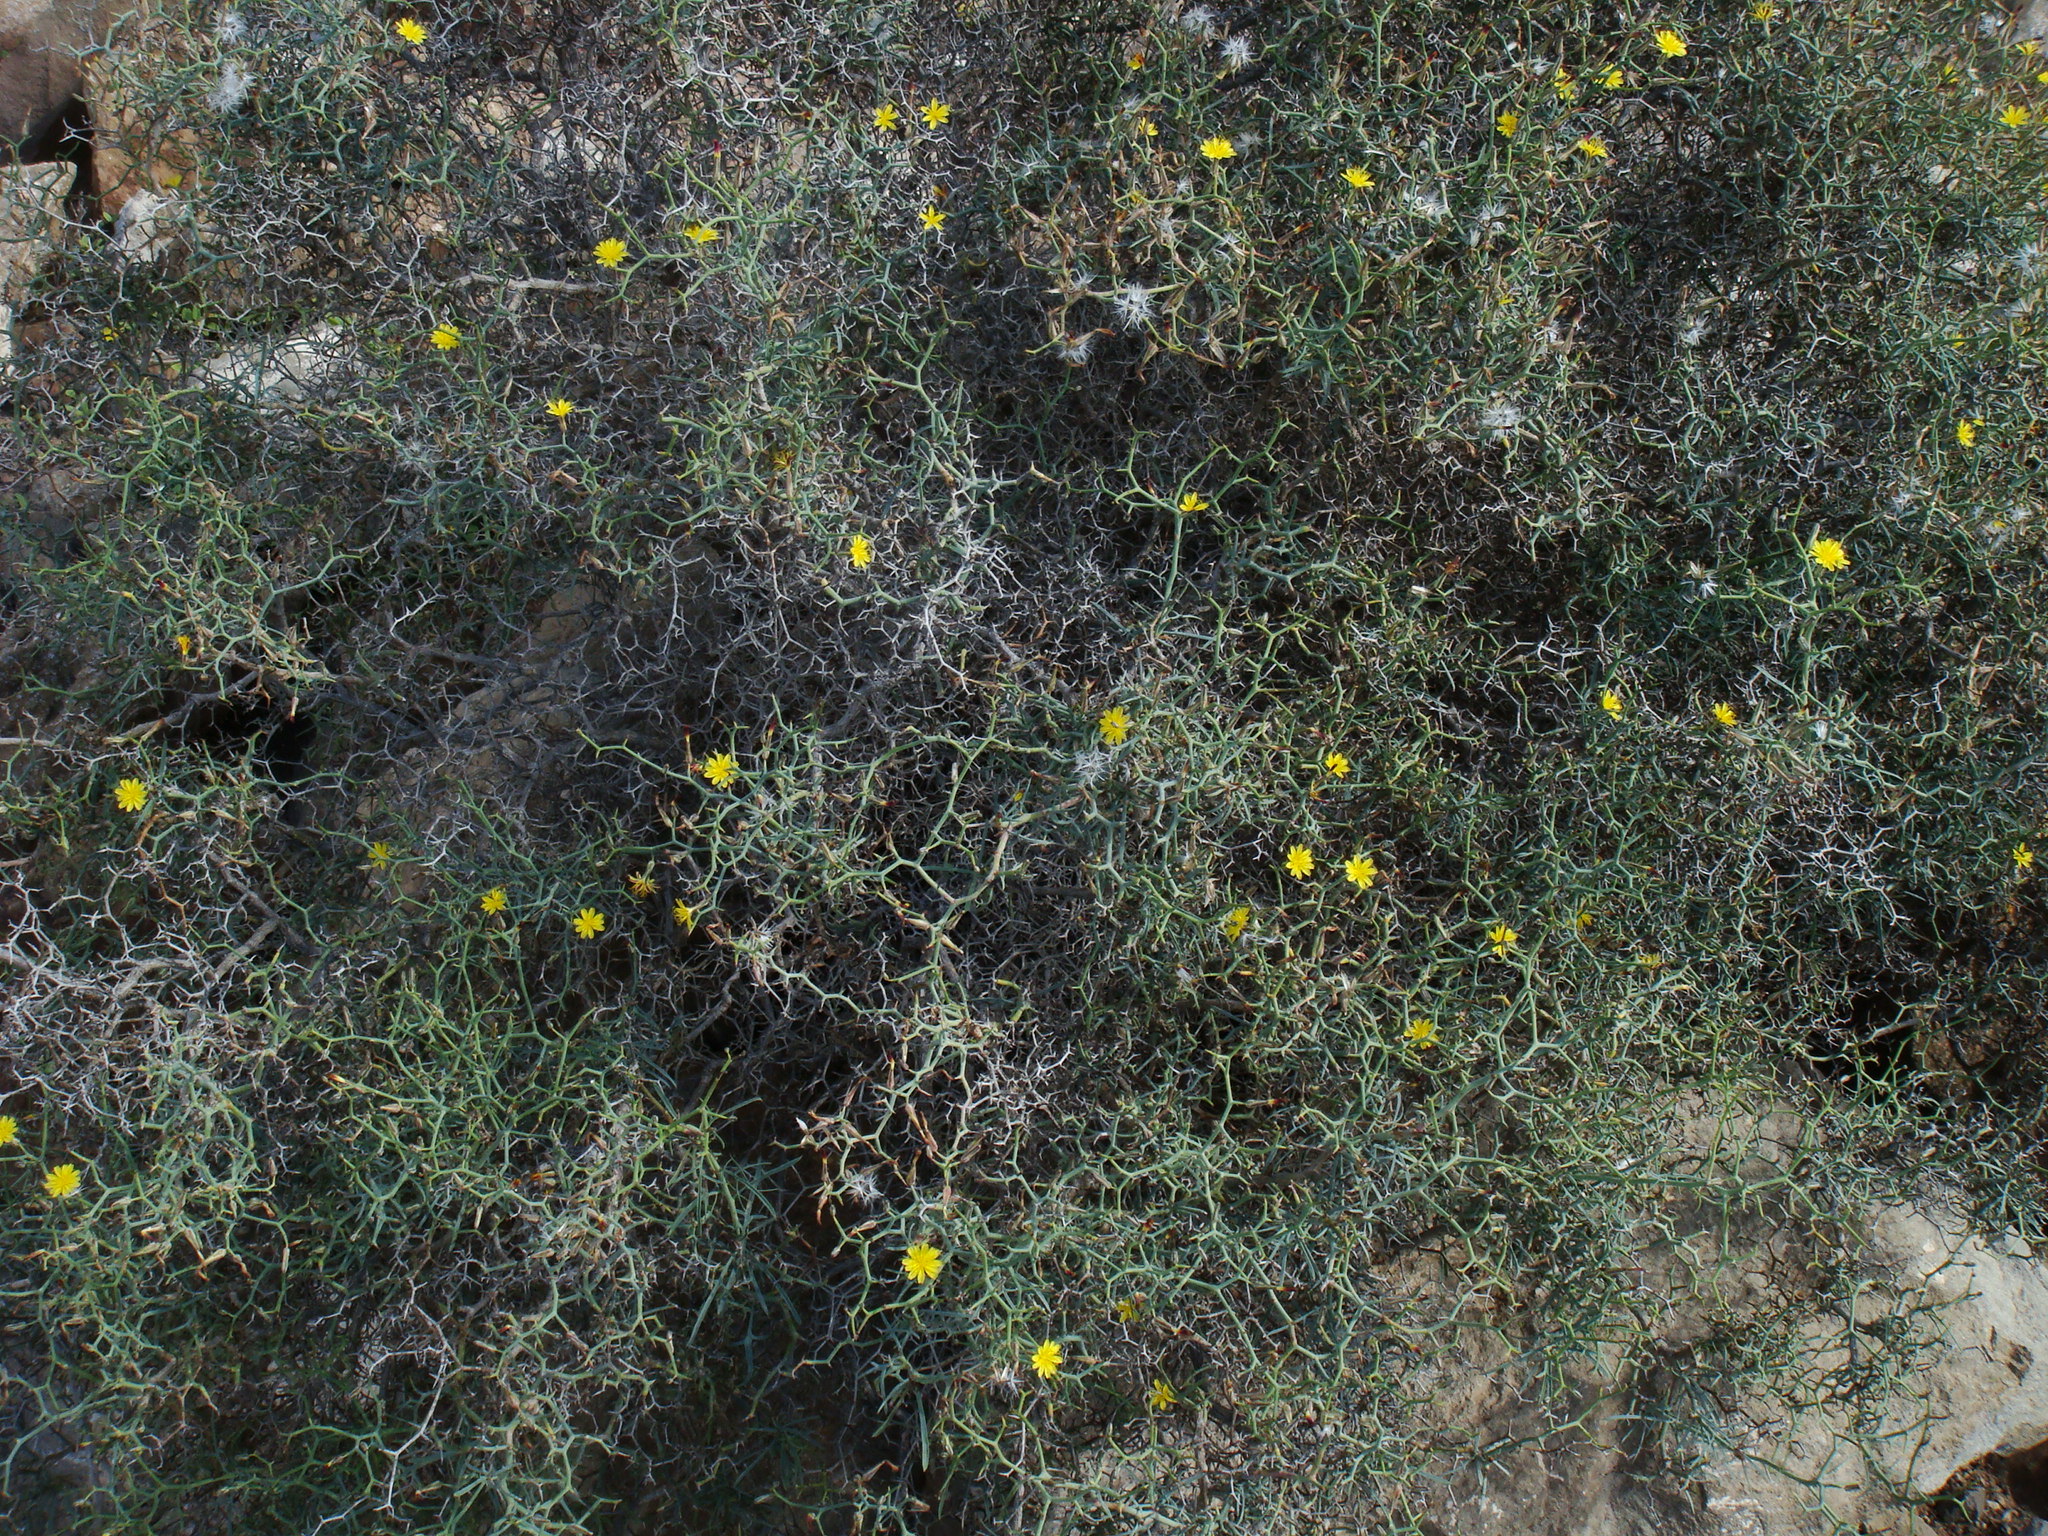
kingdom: Plantae
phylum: Tracheophyta
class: Magnoliopsida
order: Asterales
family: Asteraceae
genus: Launaea
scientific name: Launaea arborescens
